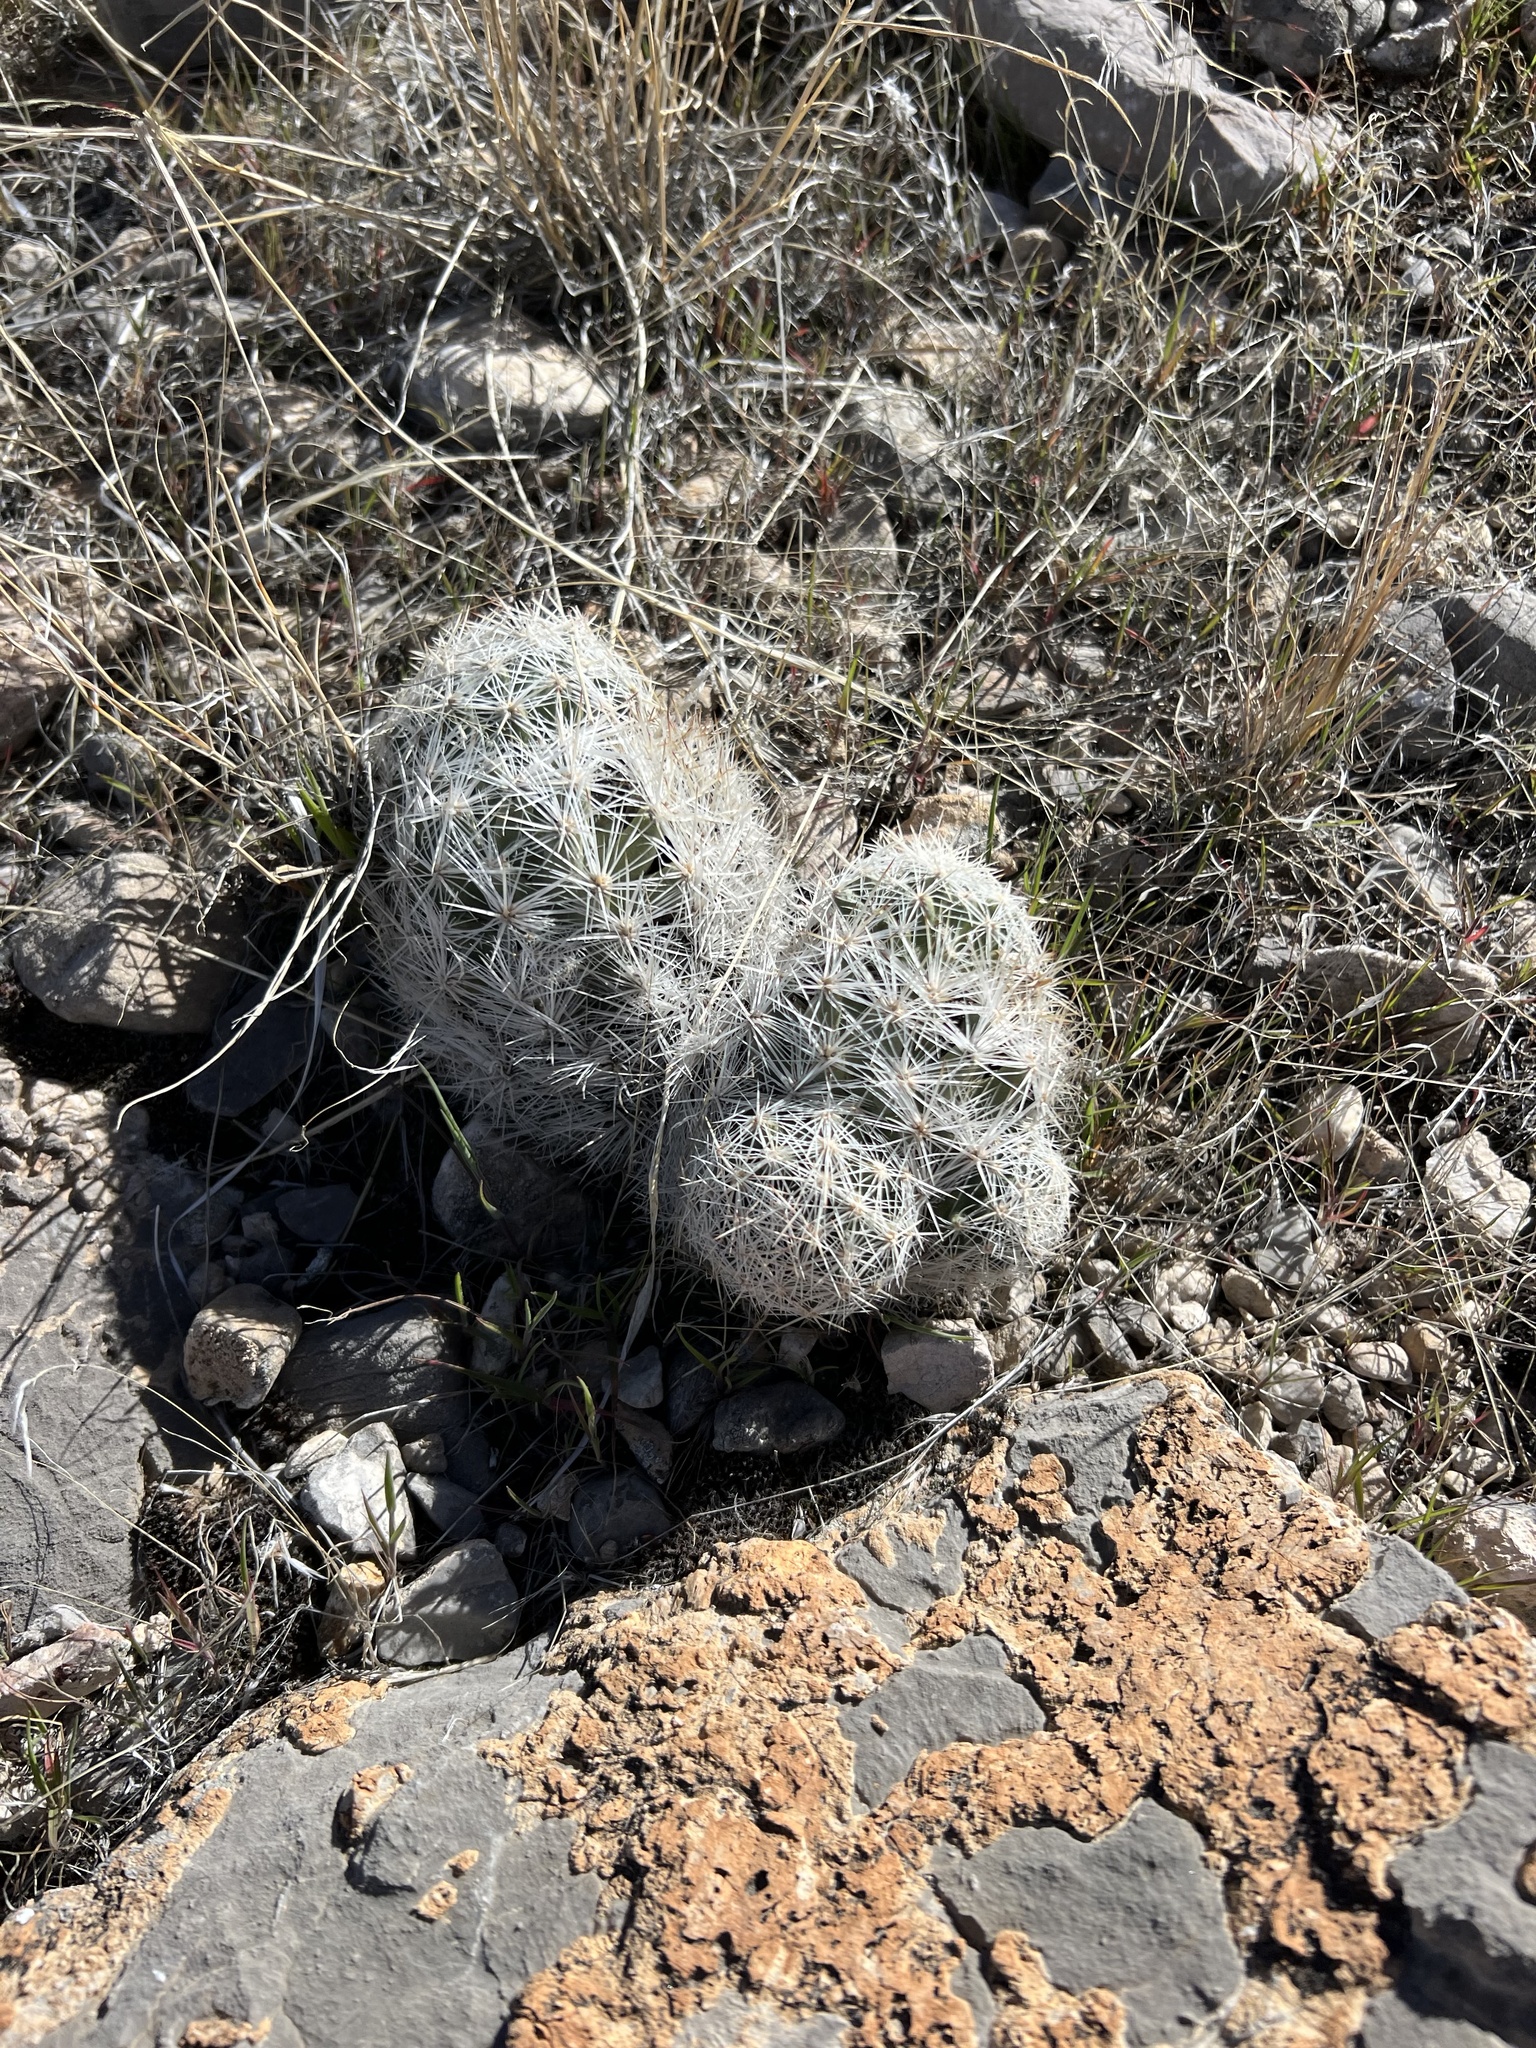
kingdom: Plantae
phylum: Tracheophyta
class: Magnoliopsida
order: Caryophyllales
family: Cactaceae
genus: Pelecyphora
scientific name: Pelecyphora dasyacantha
